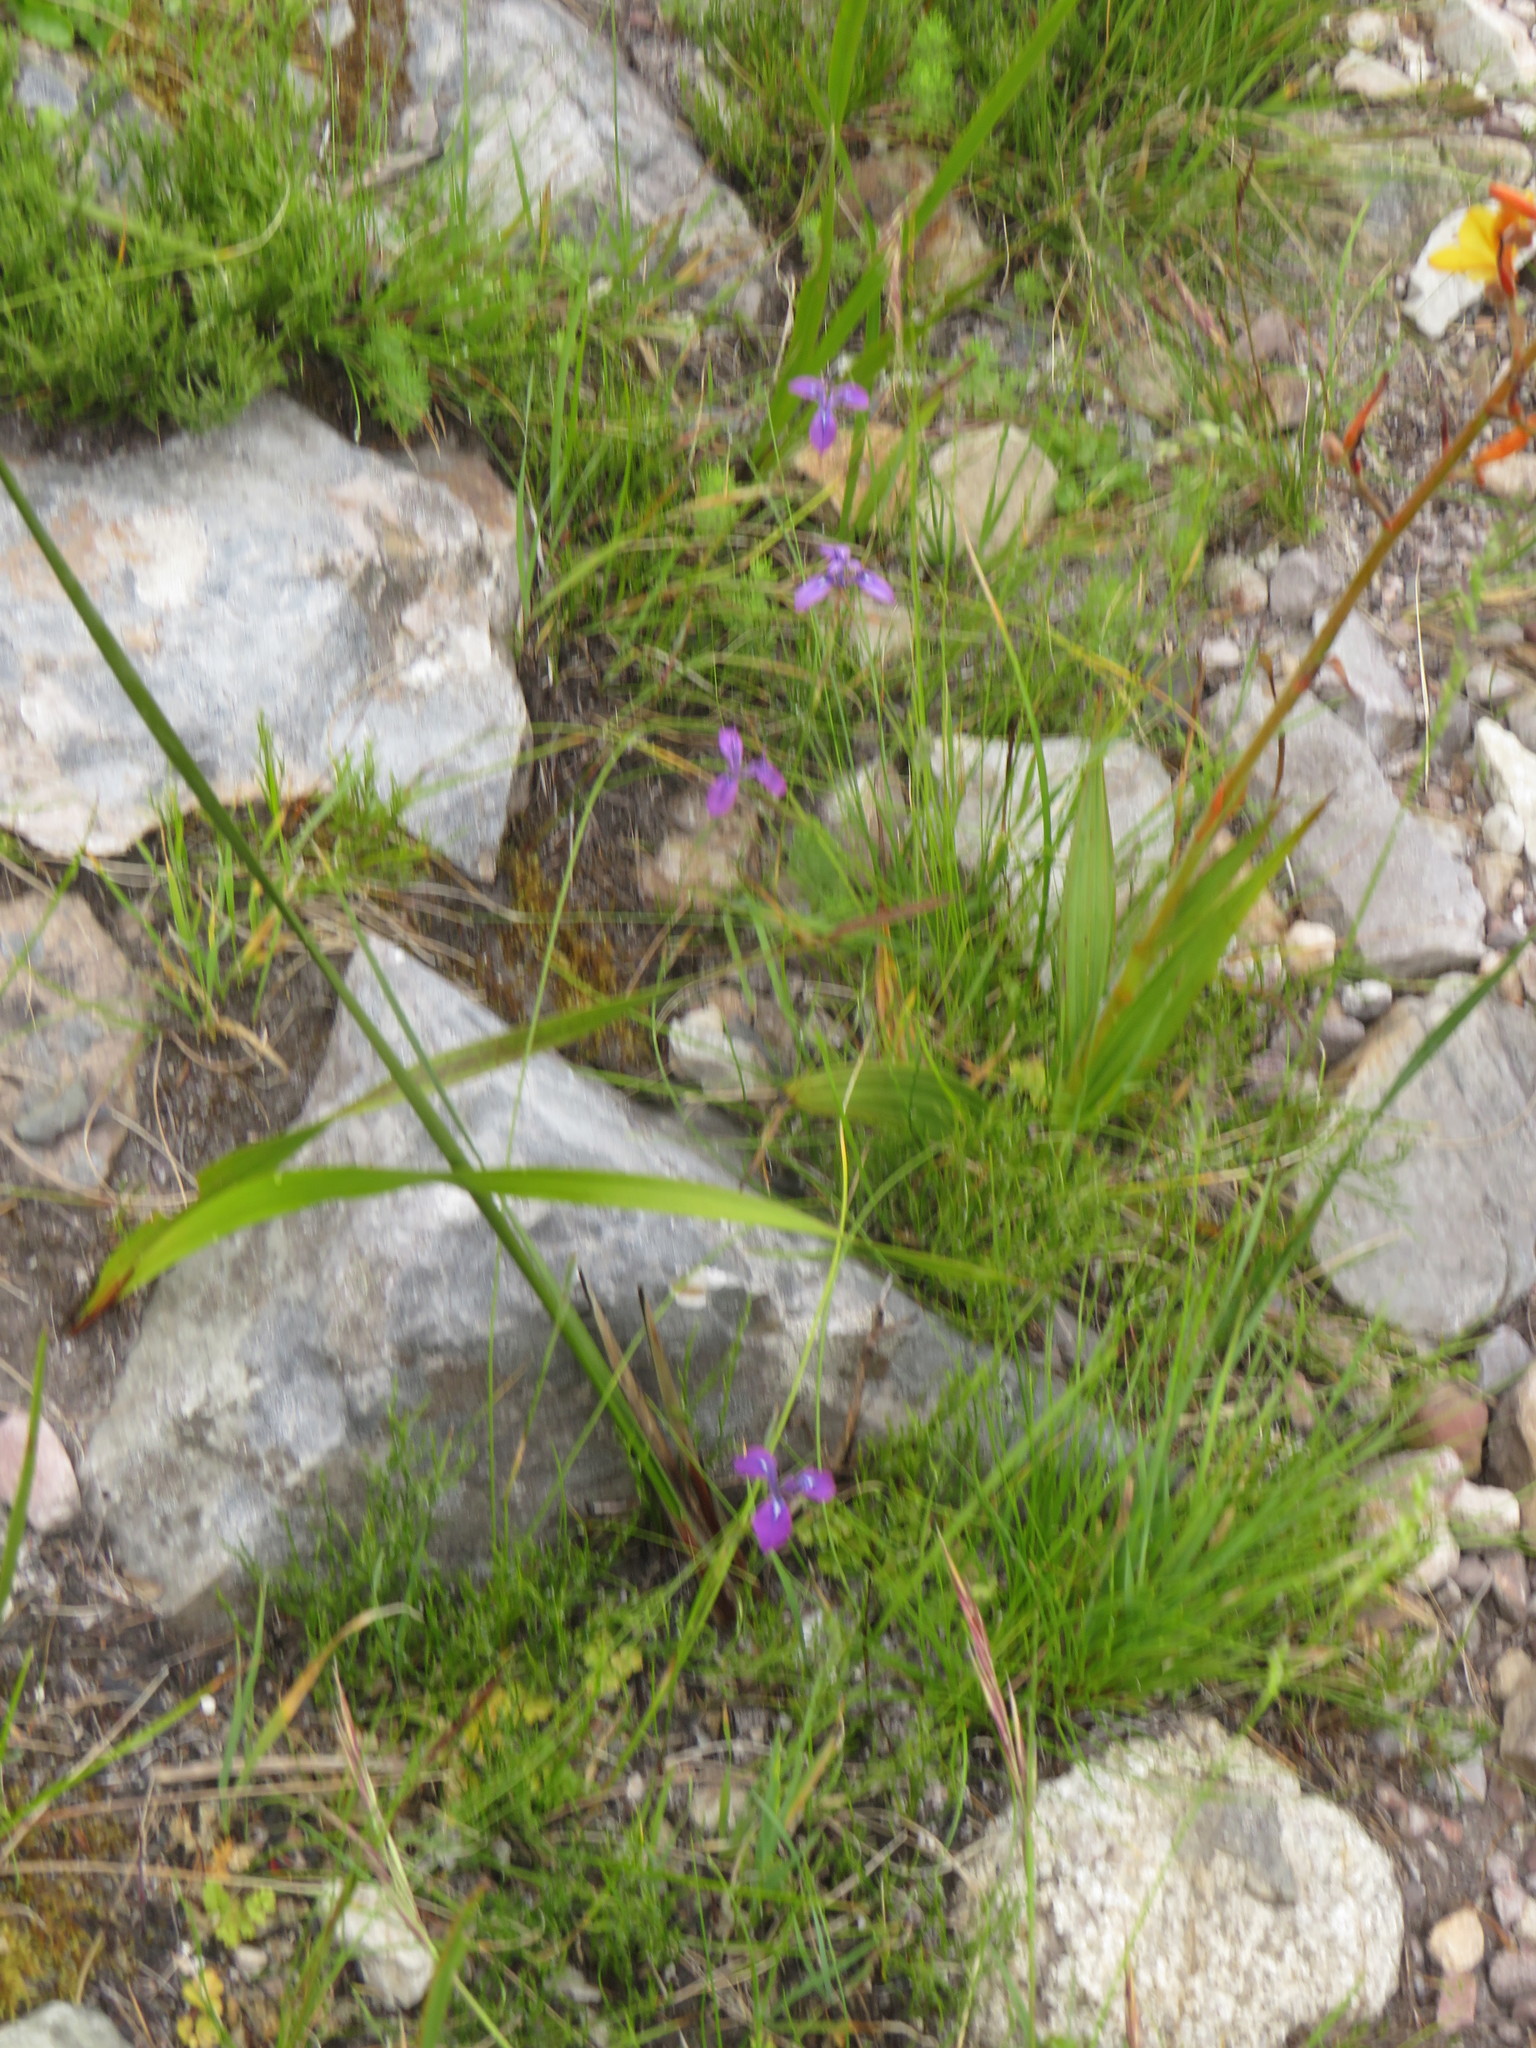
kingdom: Plantae
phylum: Tracheophyta
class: Liliopsida
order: Asparagales
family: Iridaceae
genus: Moraea
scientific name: Moraea tripetala
